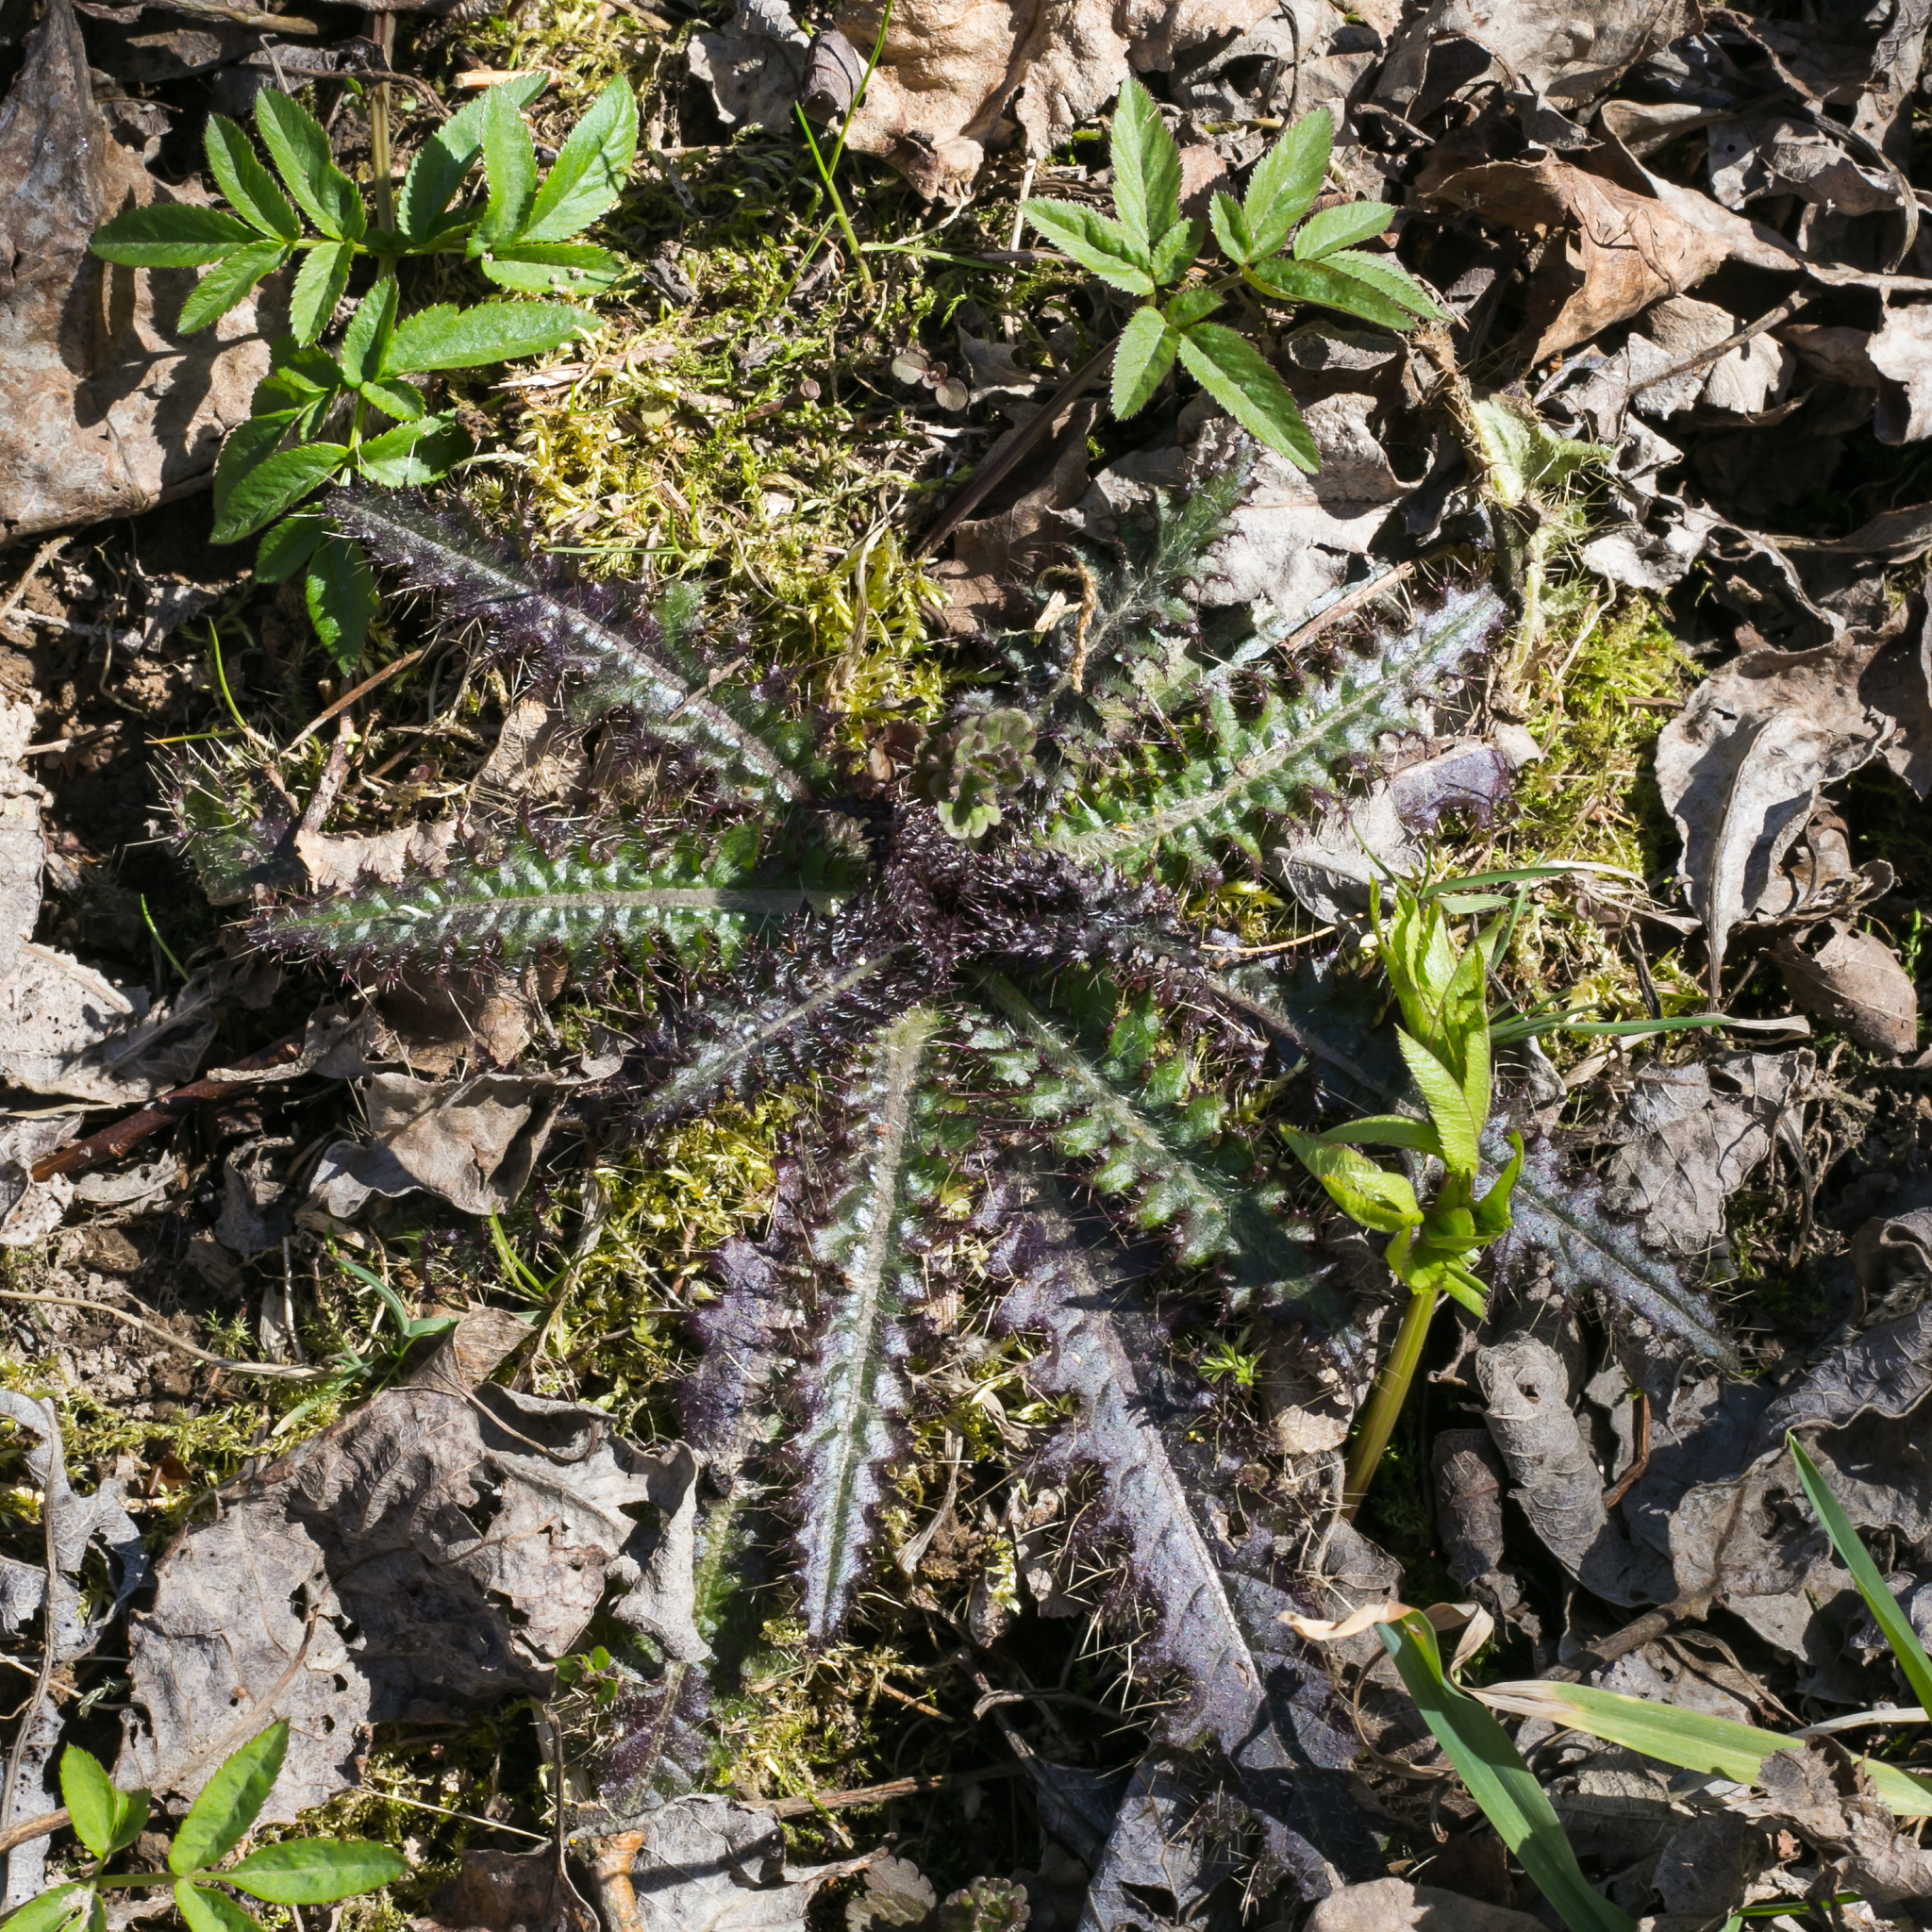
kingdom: Plantae
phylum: Tracheophyta
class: Magnoliopsida
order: Asterales
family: Asteraceae
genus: Cirsium
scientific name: Cirsium palustre
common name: Marsh thistle
